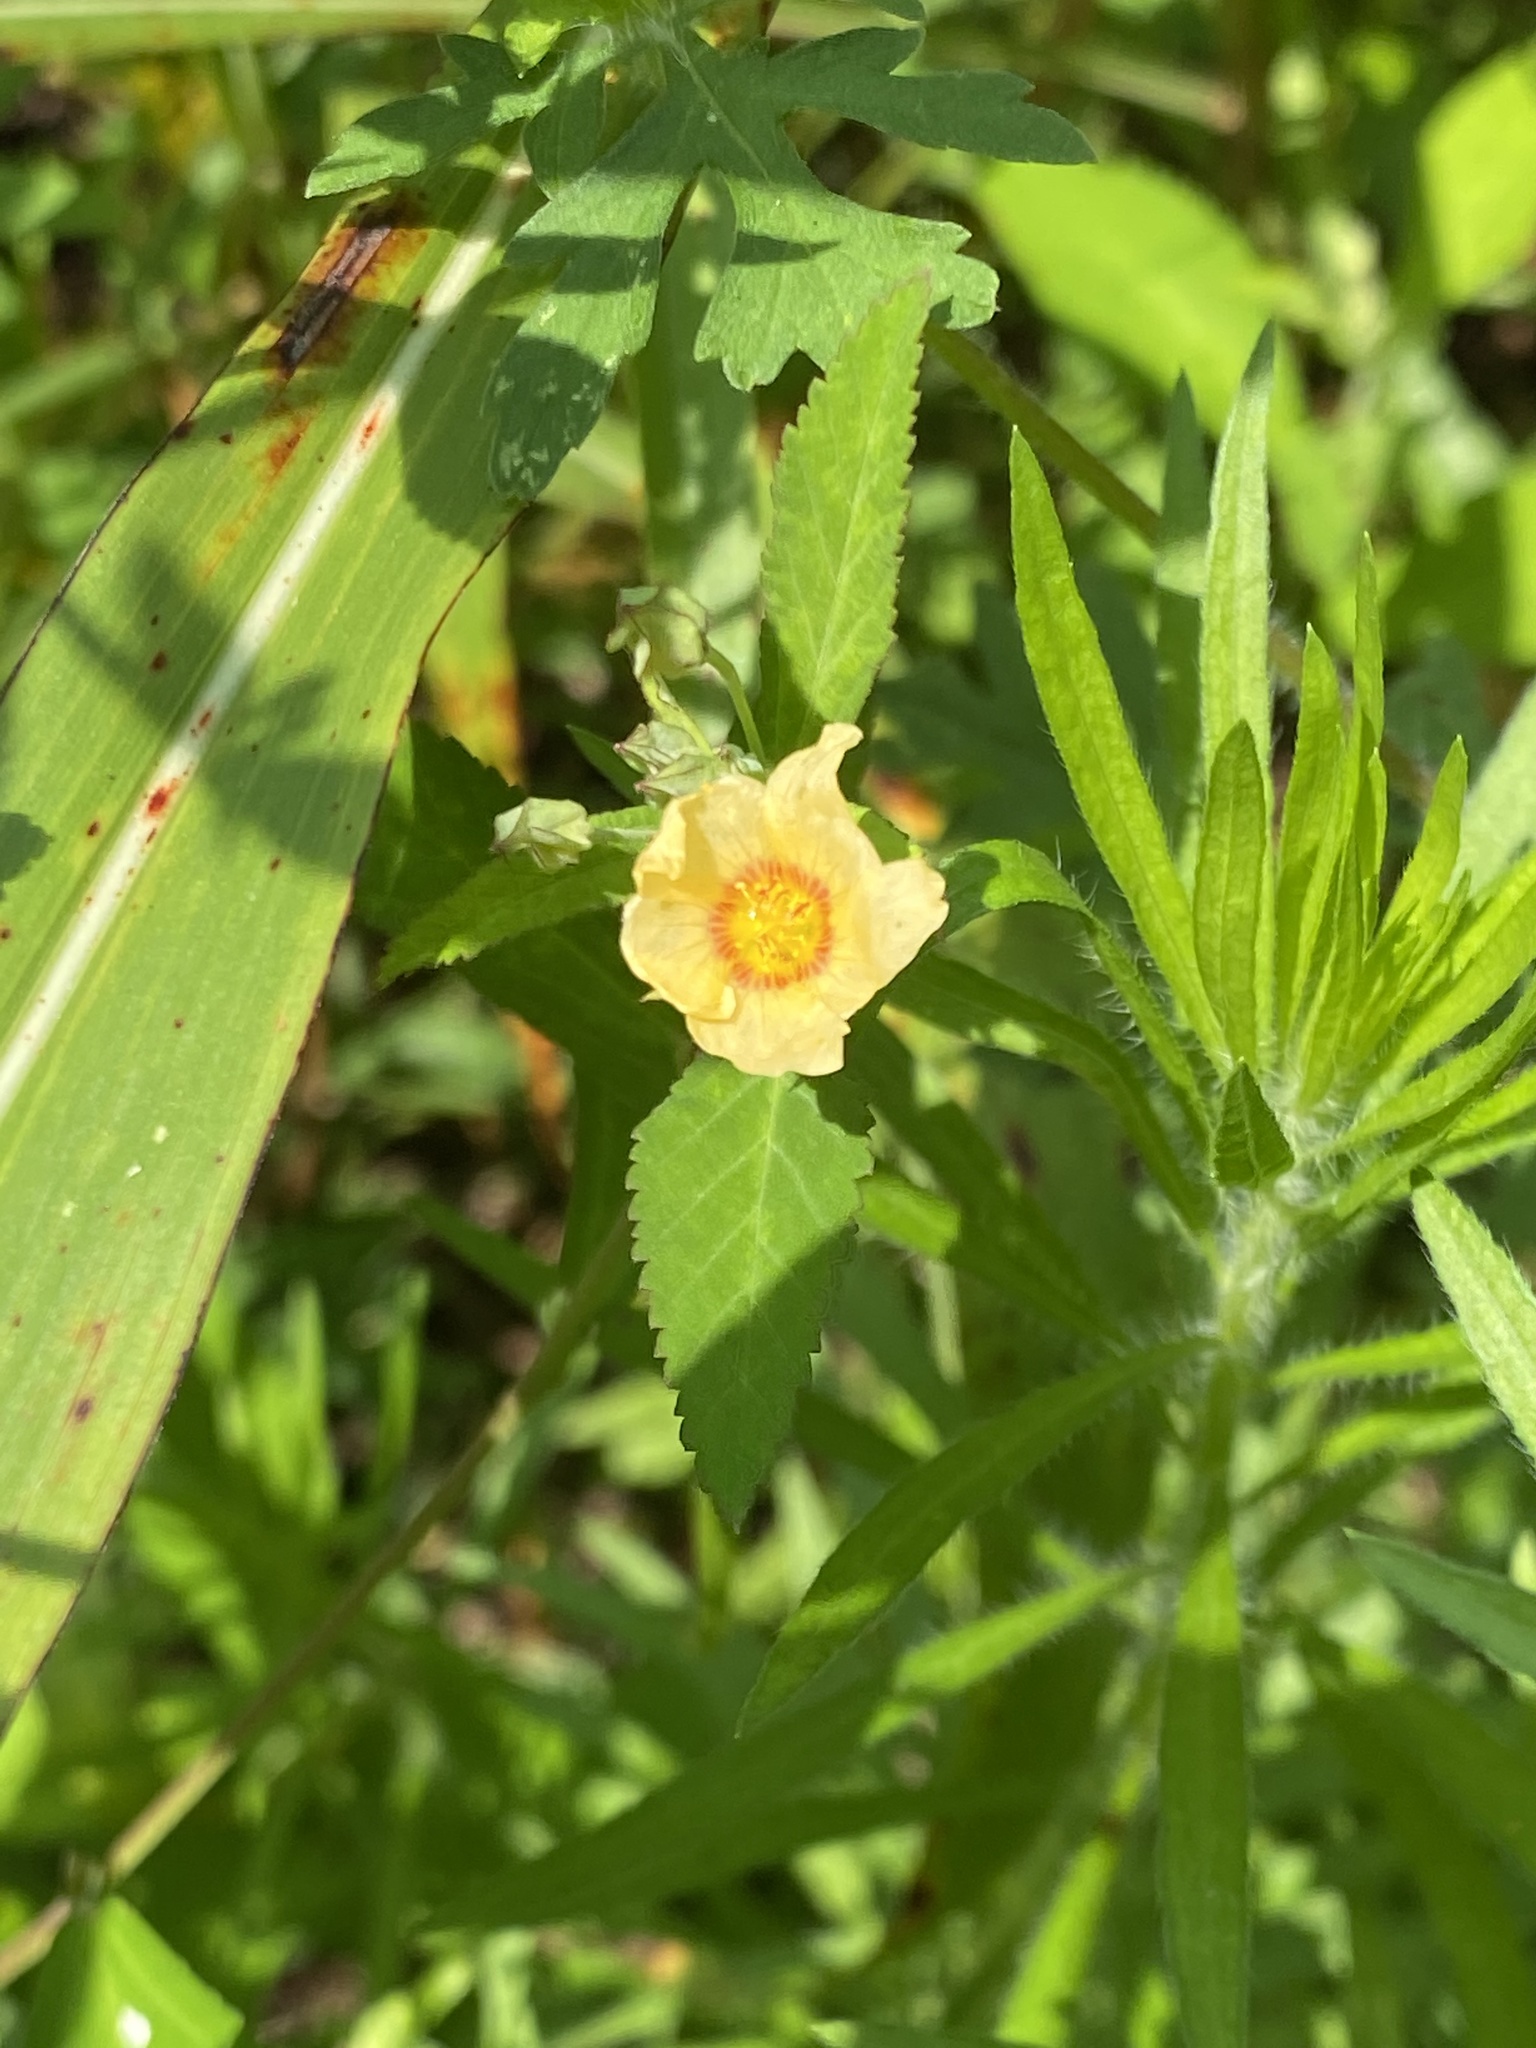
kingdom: Plantae
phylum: Tracheophyta
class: Magnoliopsida
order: Malvales
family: Malvaceae
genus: Sida
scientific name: Sida spinosa
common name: Prickly fanpetals
